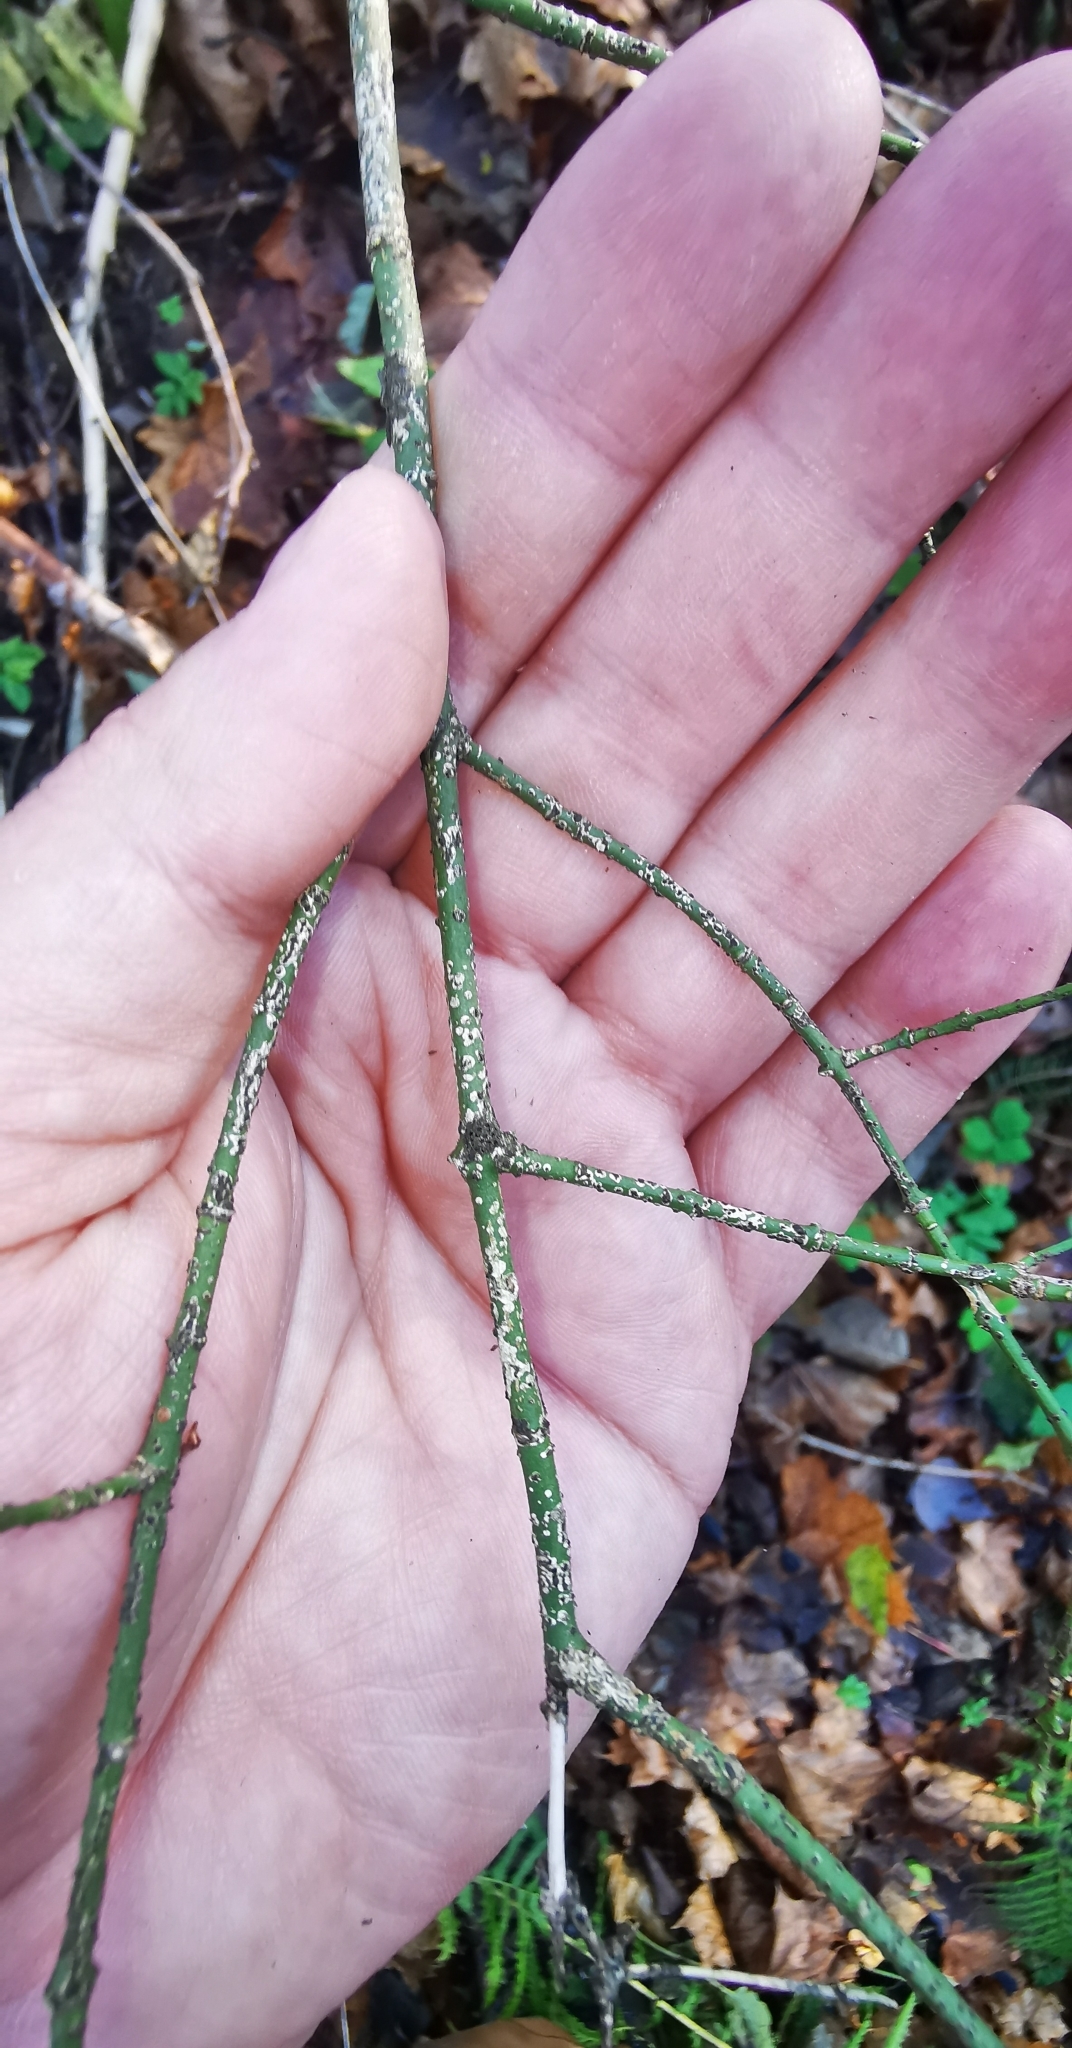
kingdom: Plantae
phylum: Tracheophyta
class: Magnoliopsida
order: Celastrales
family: Celastraceae
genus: Euonymus
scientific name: Euonymus verrucosus
